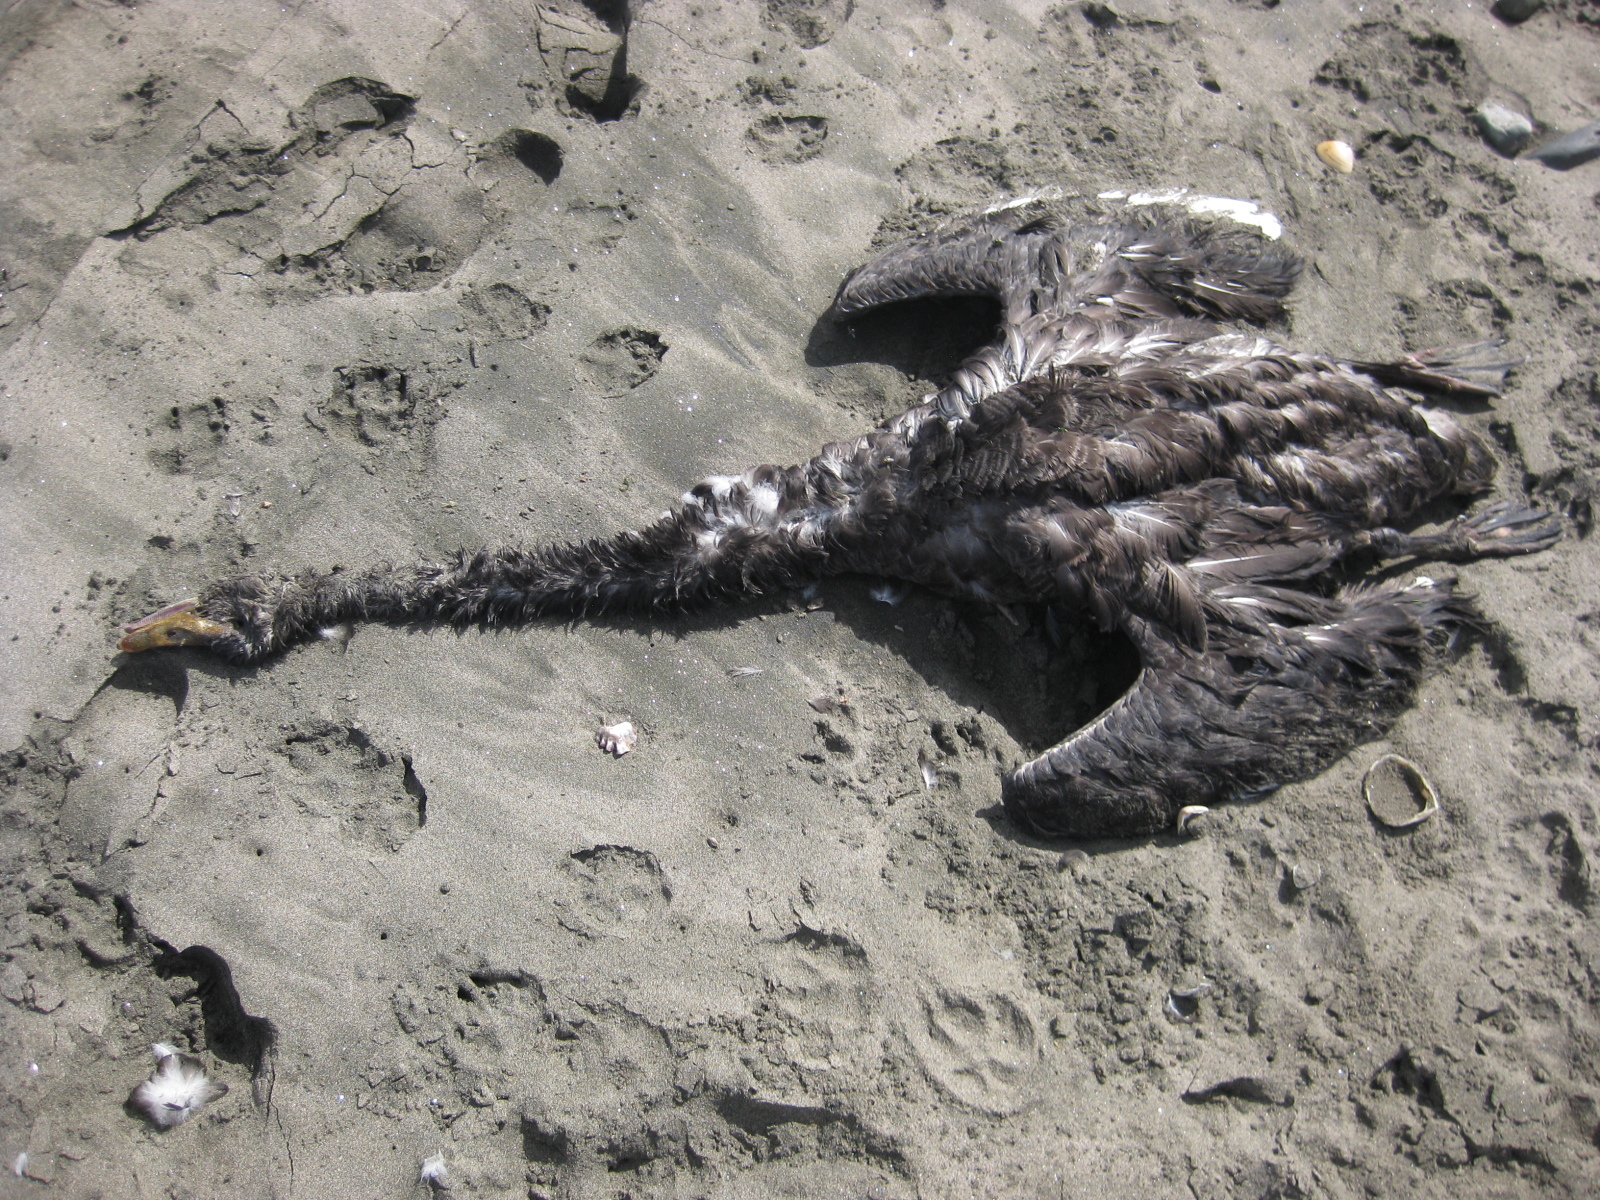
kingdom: Animalia
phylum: Chordata
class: Aves
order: Anseriformes
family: Anatidae
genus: Cygnus
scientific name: Cygnus atratus
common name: Black swan
